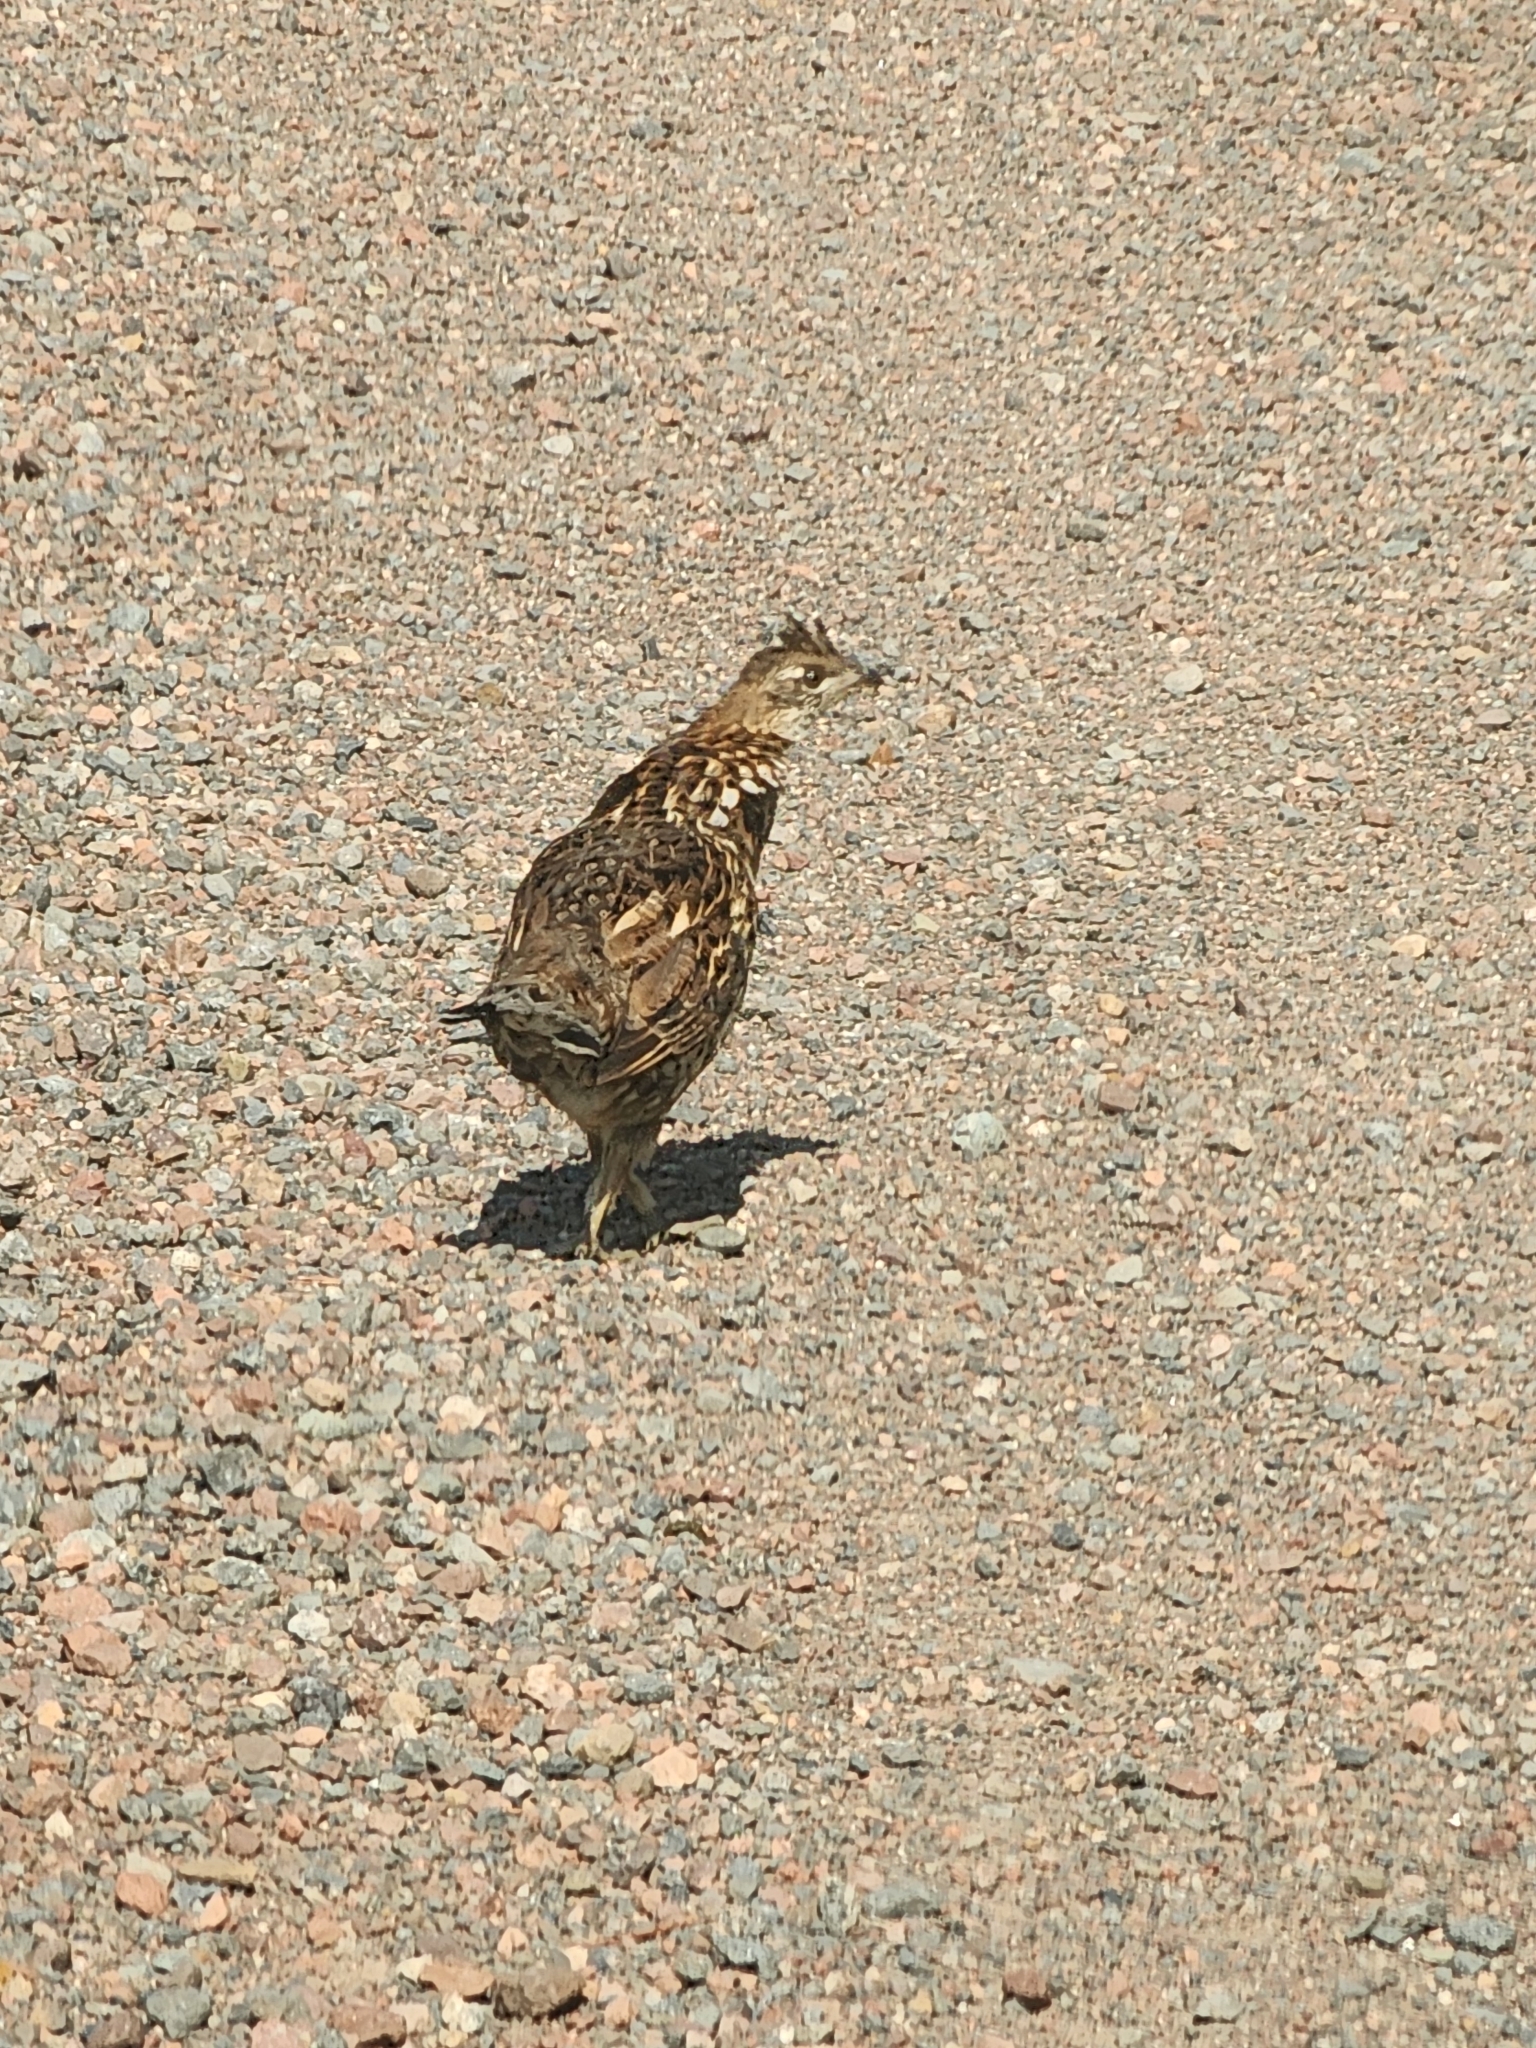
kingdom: Animalia
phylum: Chordata
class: Aves
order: Galliformes
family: Phasianidae
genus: Bonasa
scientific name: Bonasa umbellus
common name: Ruffed grouse
